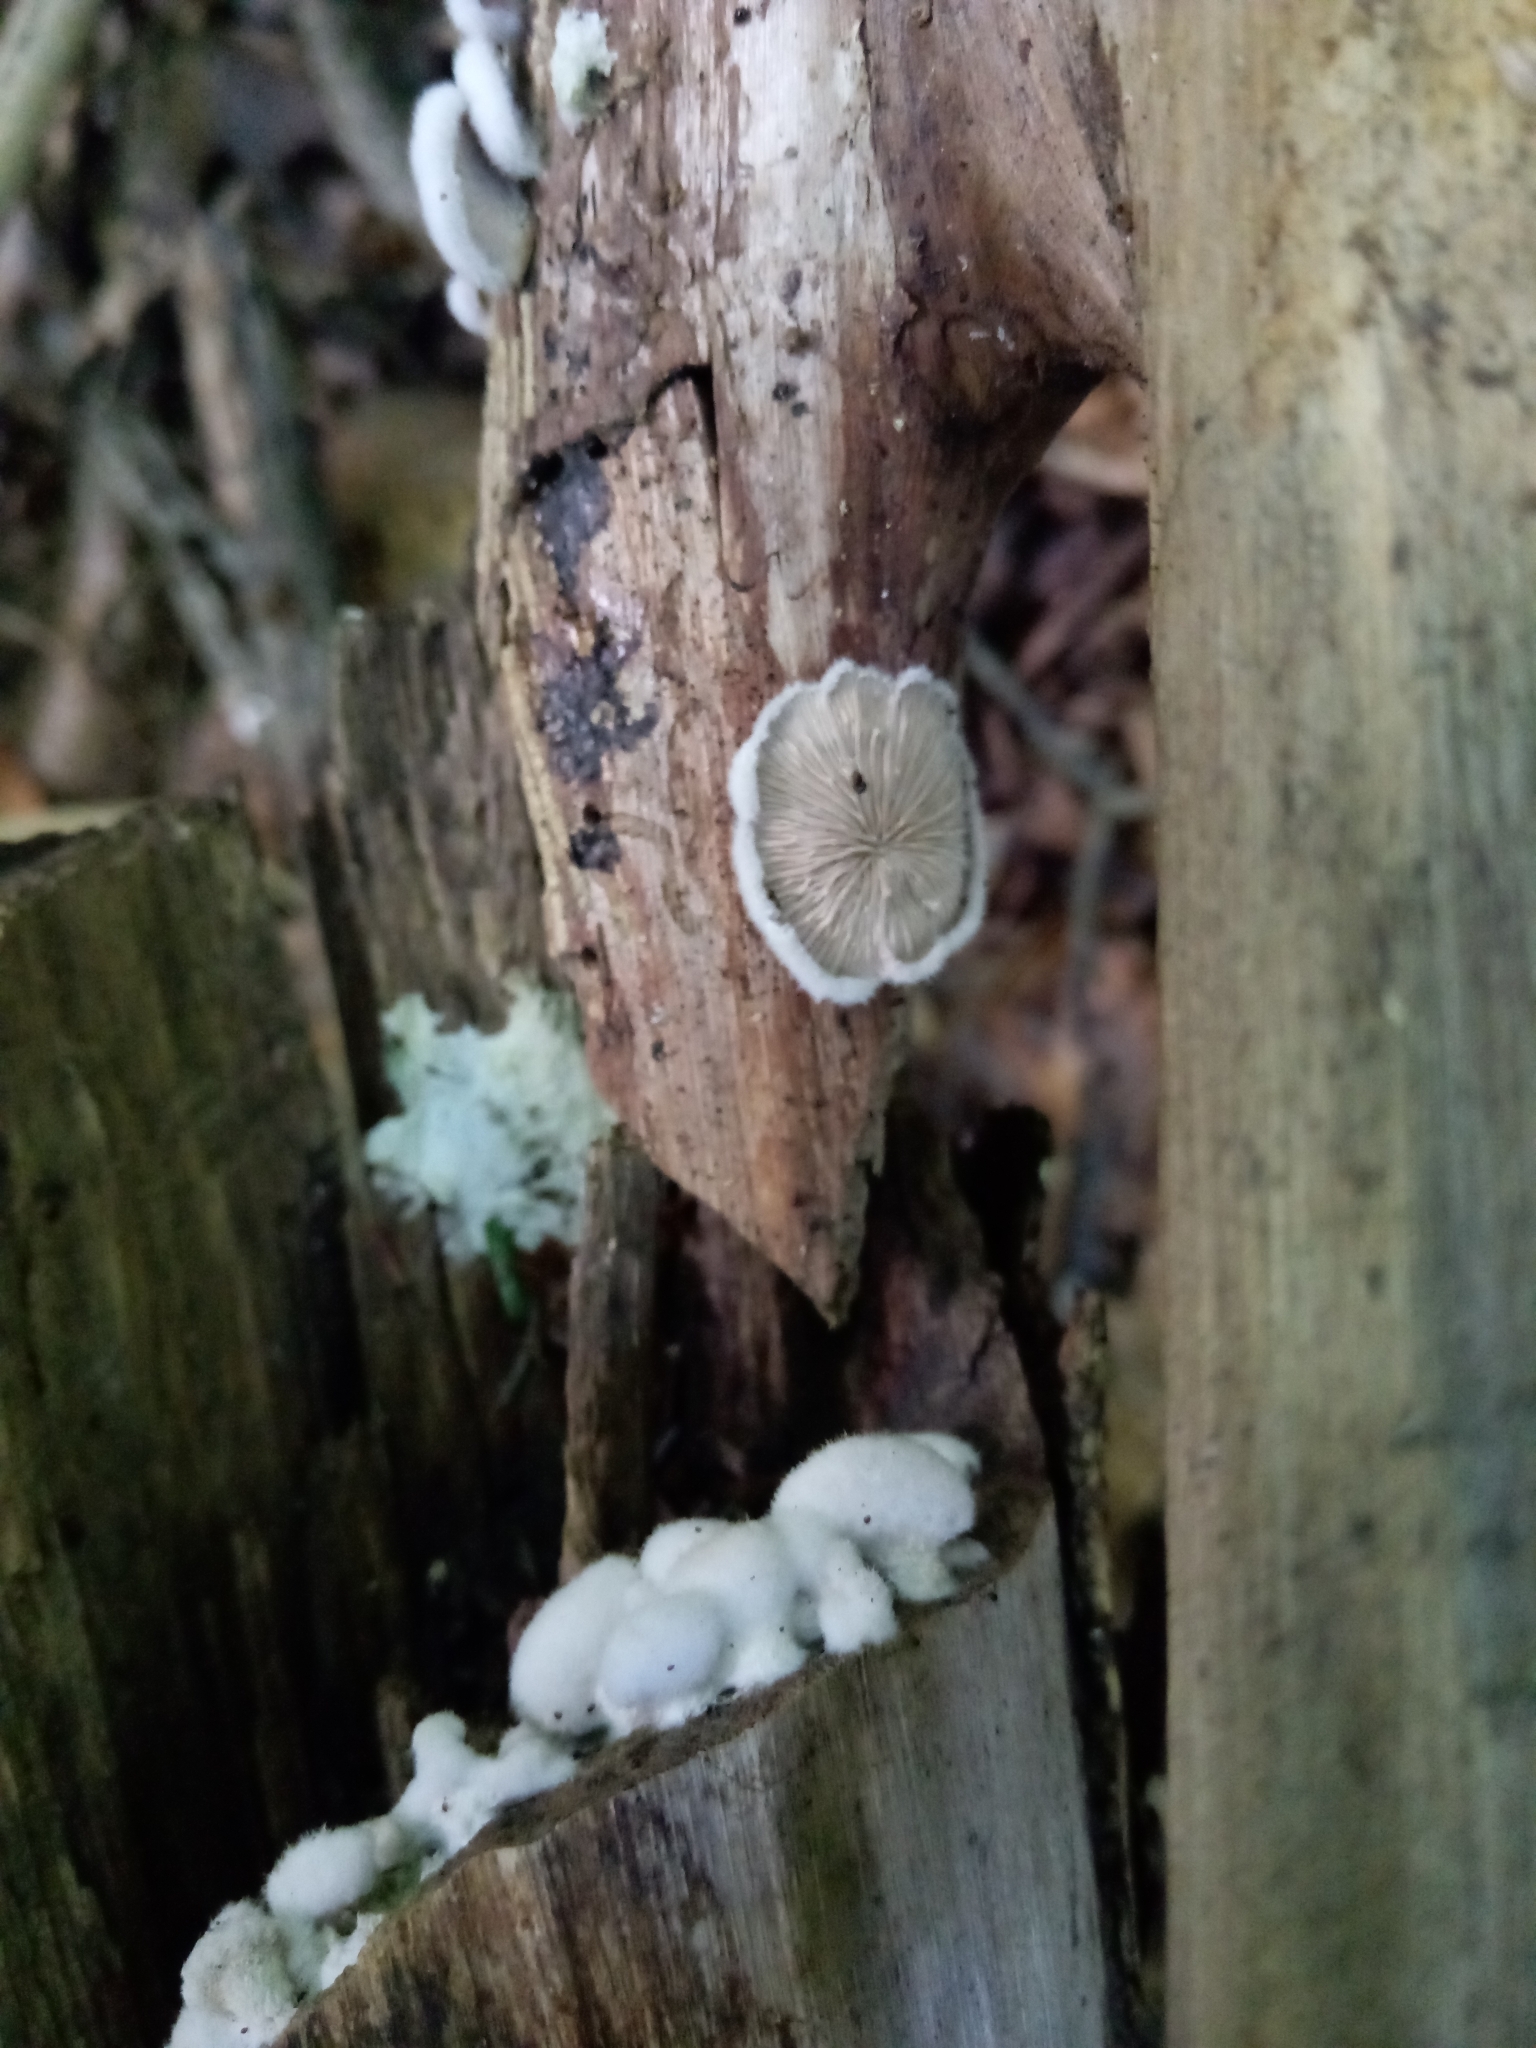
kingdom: Fungi
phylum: Basidiomycota
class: Agaricomycetes
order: Agaricales
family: Schizophyllaceae
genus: Schizophyllum
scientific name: Schizophyllum commune
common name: Common porecrust
